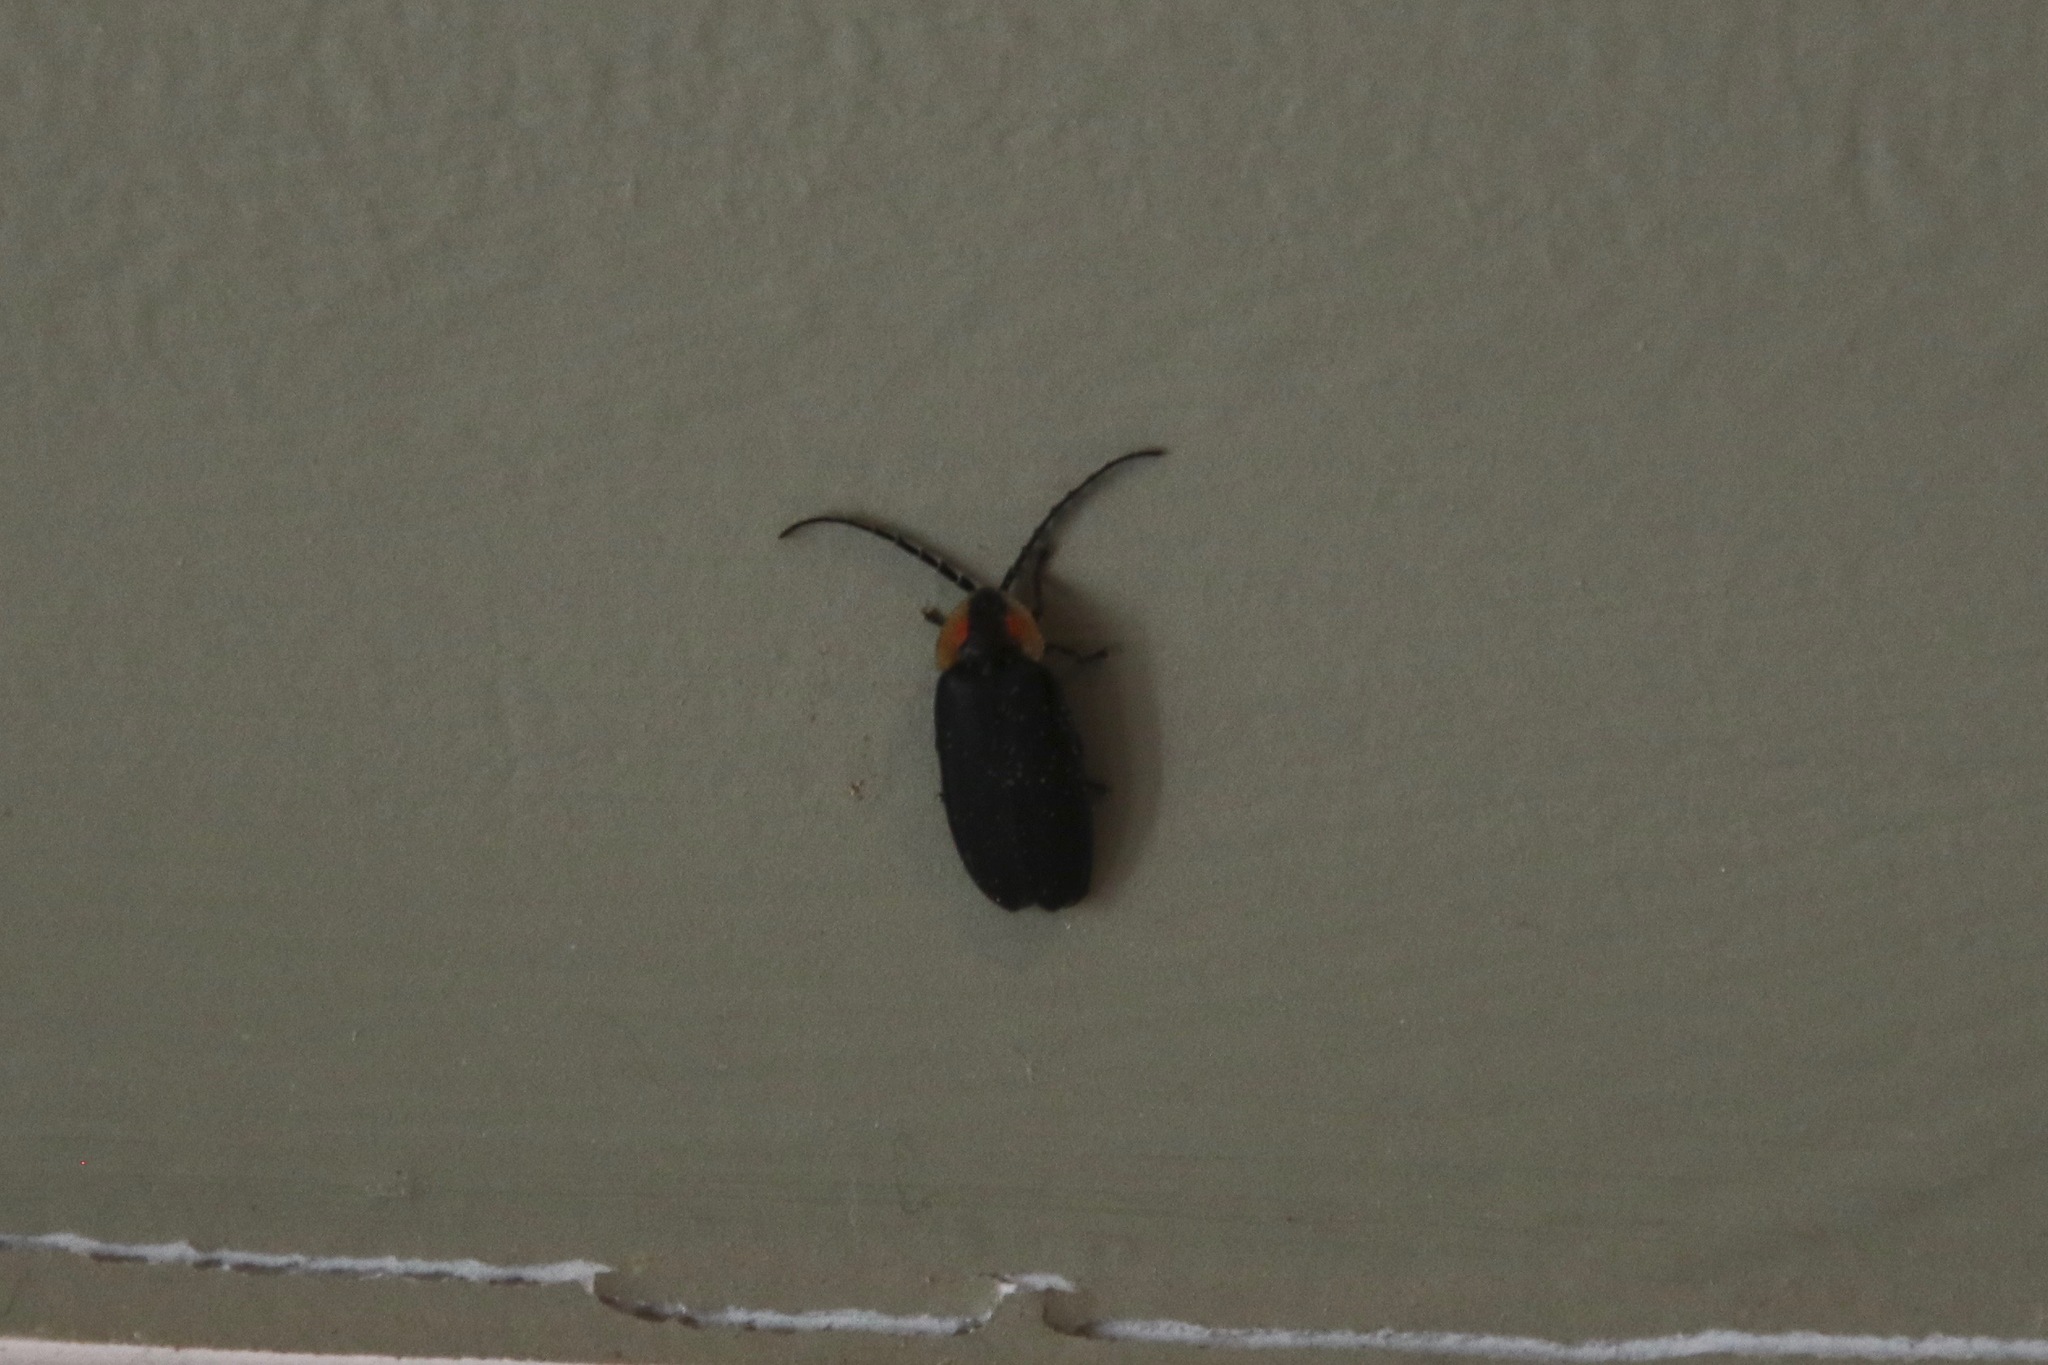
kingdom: Animalia
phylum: Arthropoda
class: Insecta
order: Coleoptera
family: Lampyridae
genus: Lucidota
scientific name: Lucidota atra
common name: Black firefly
